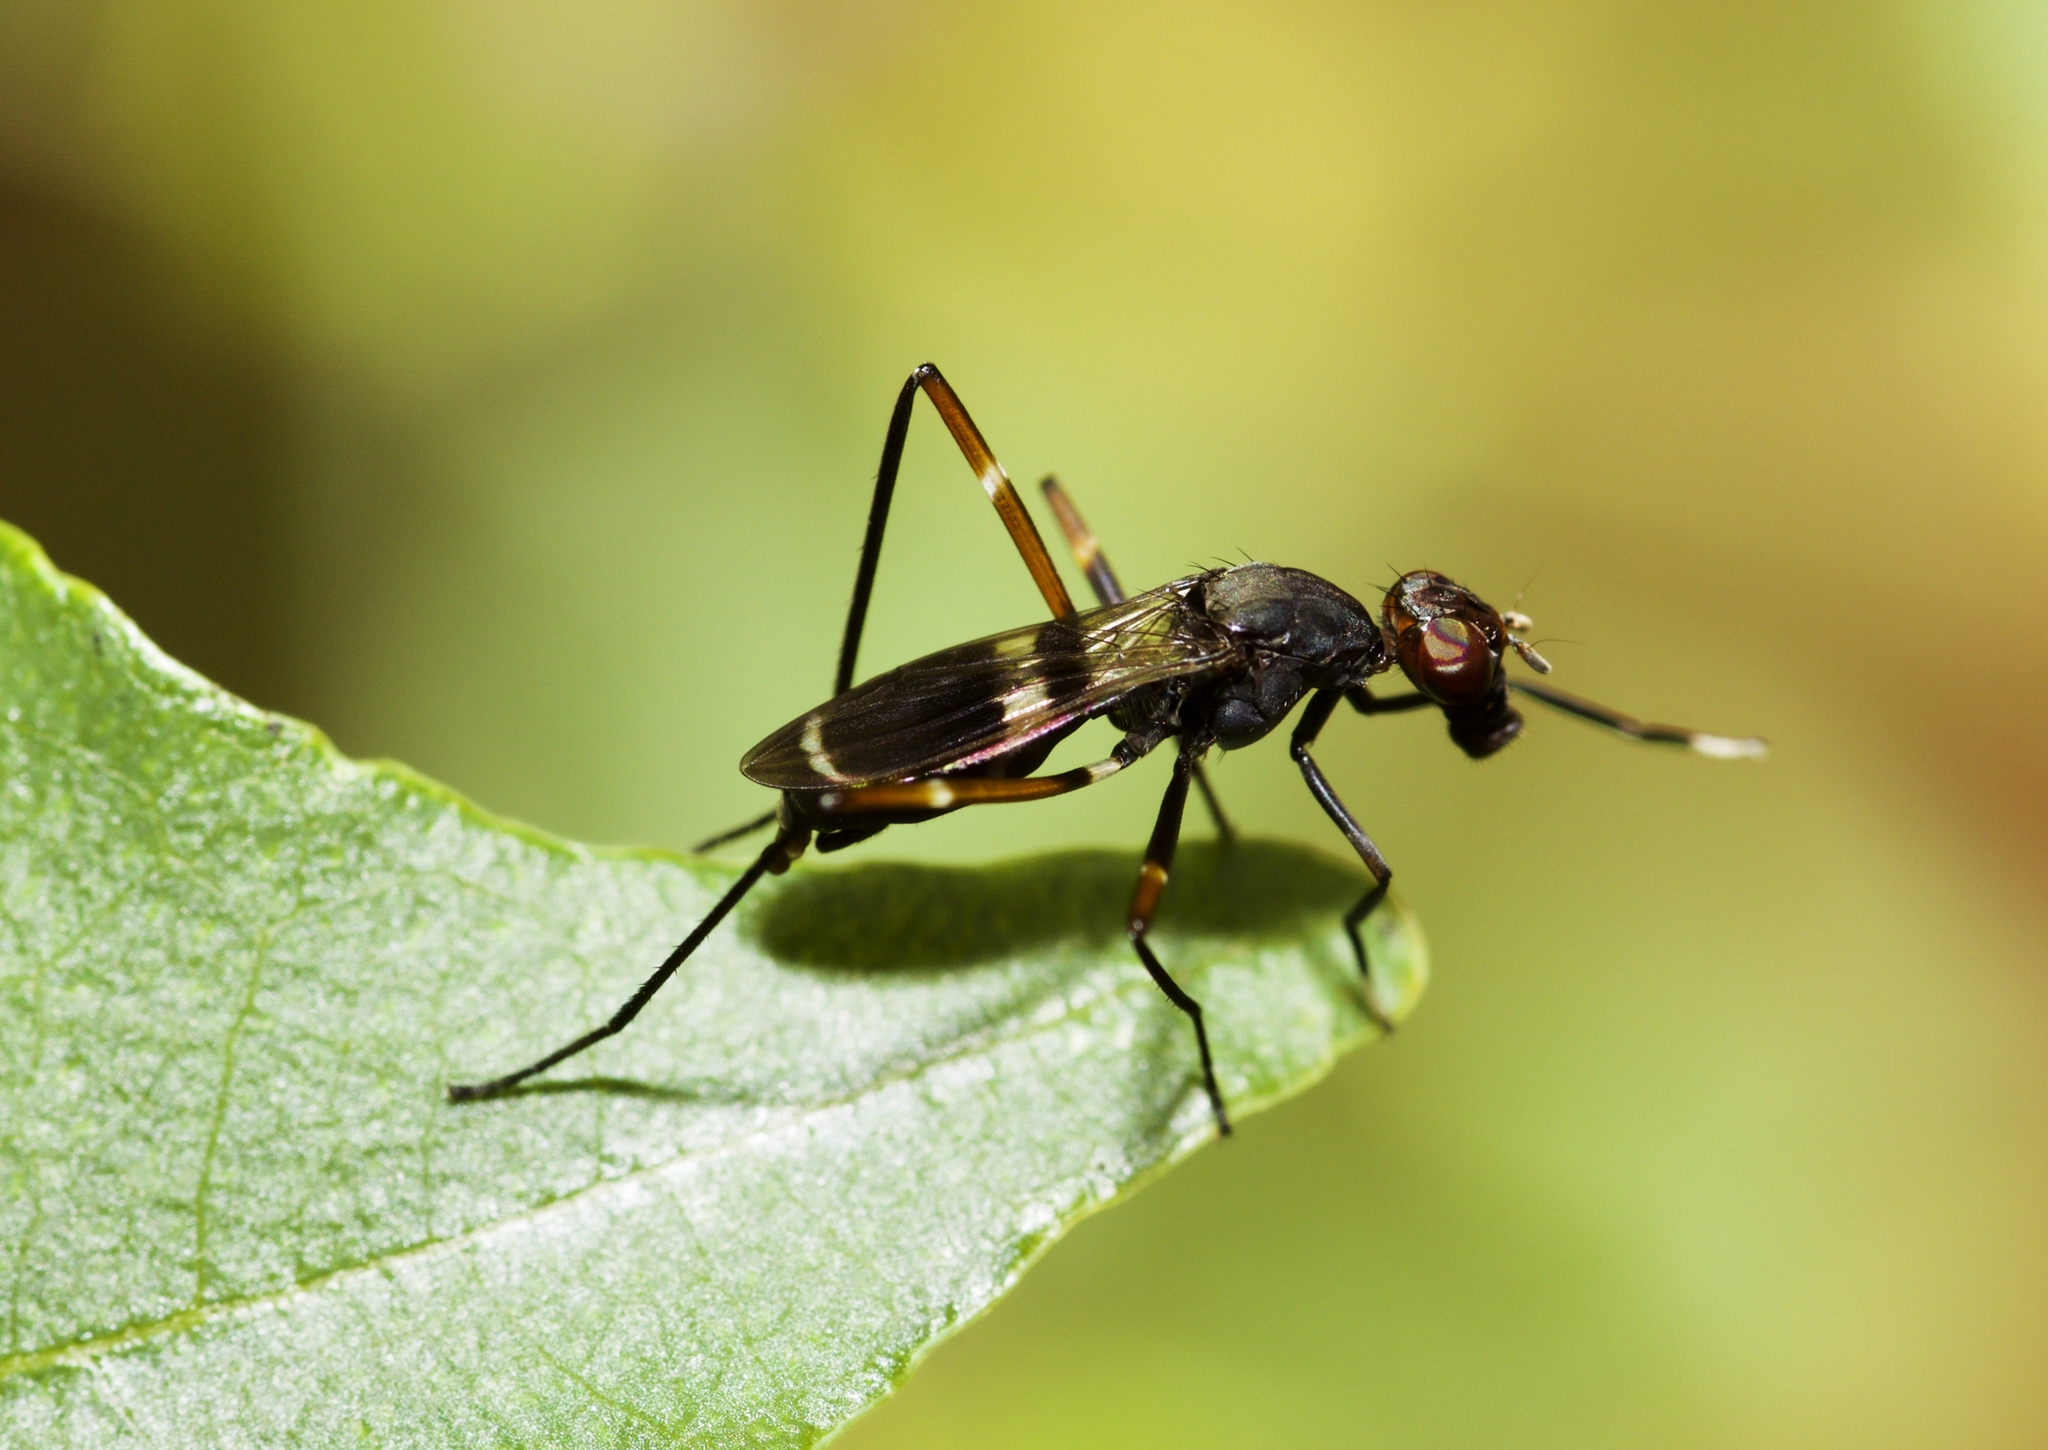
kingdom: Animalia
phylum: Arthropoda
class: Insecta
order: Diptera
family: Micropezidae
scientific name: Micropezidae
